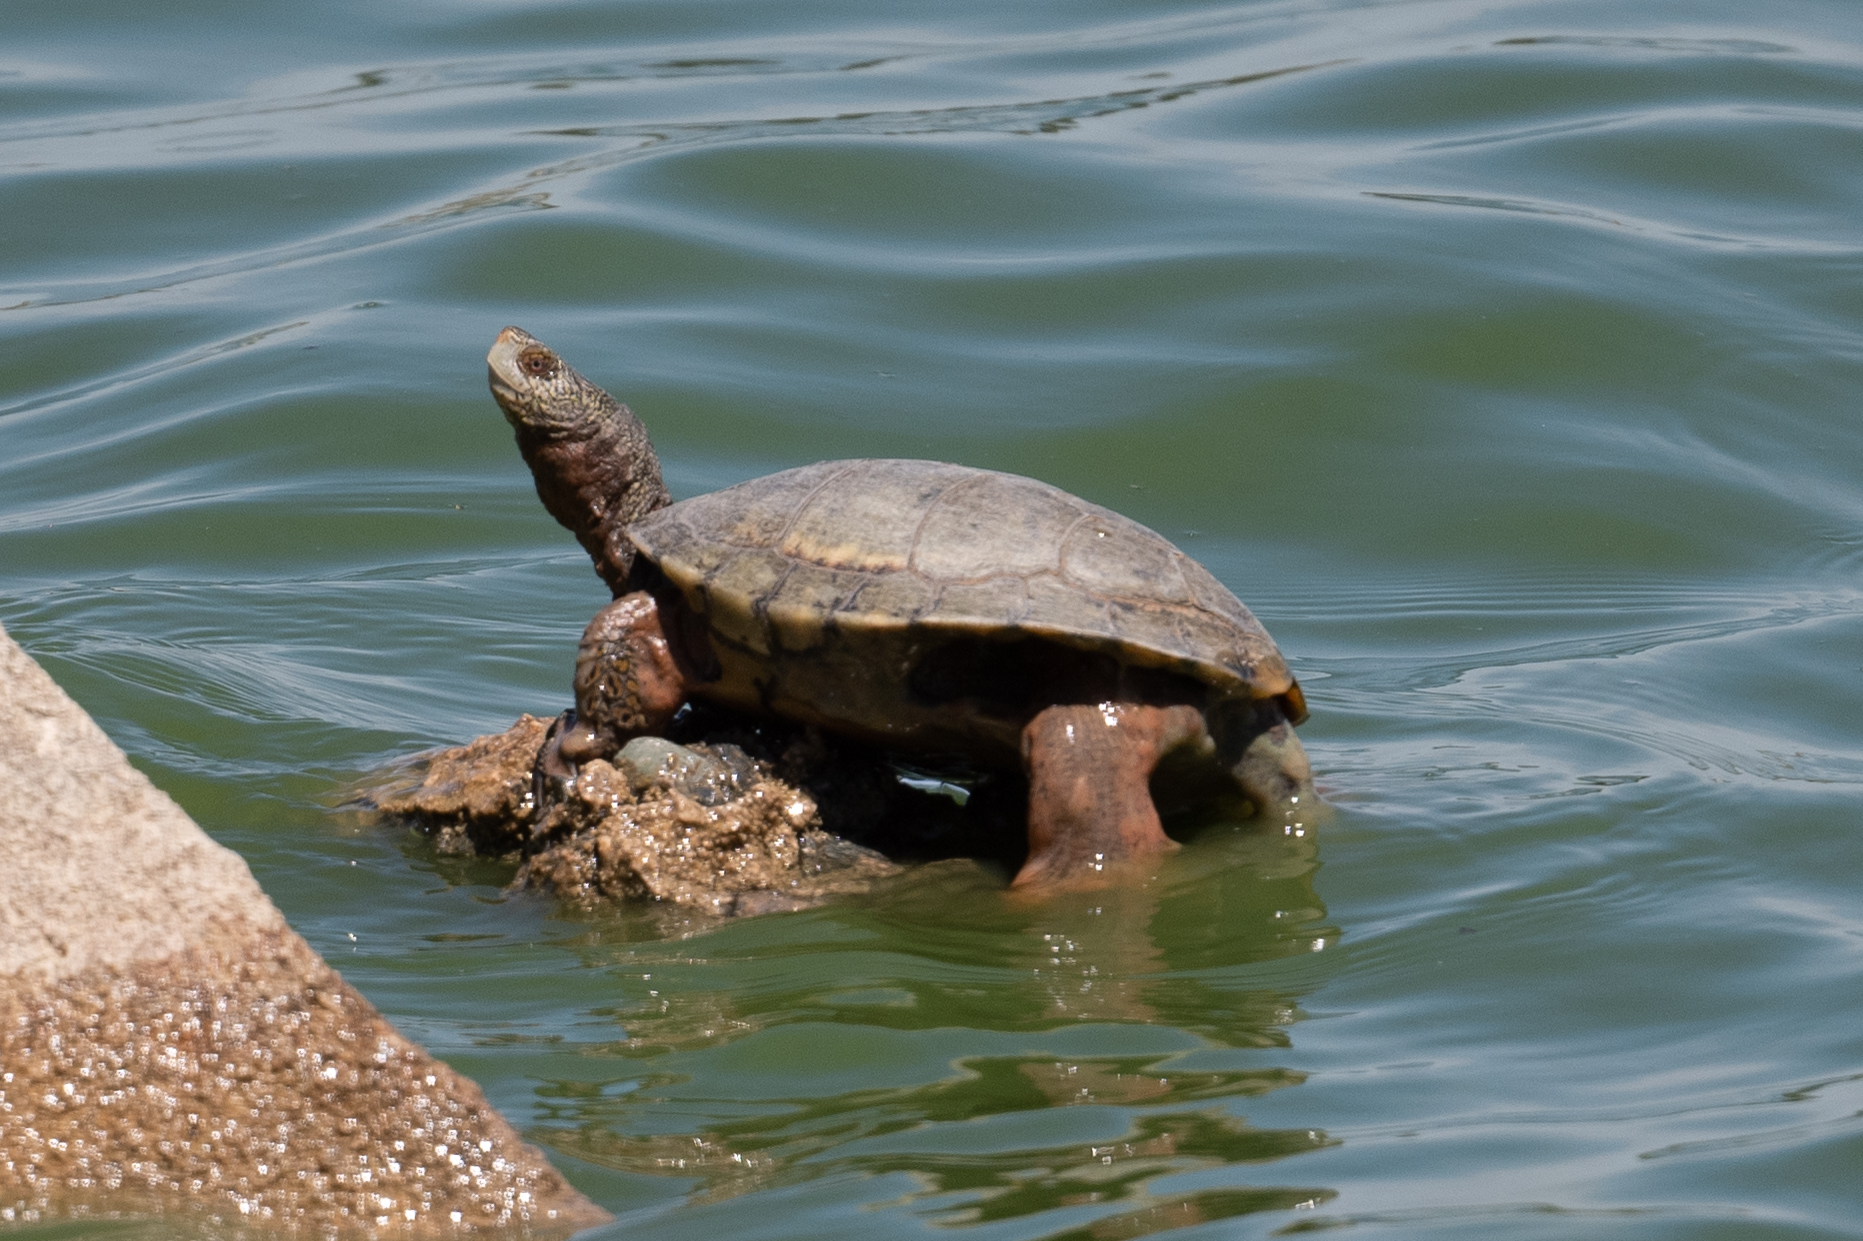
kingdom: Animalia
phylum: Chordata
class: Testudines
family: Emydidae
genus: Actinemys
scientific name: Actinemys marmorata
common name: Western pond turtle
